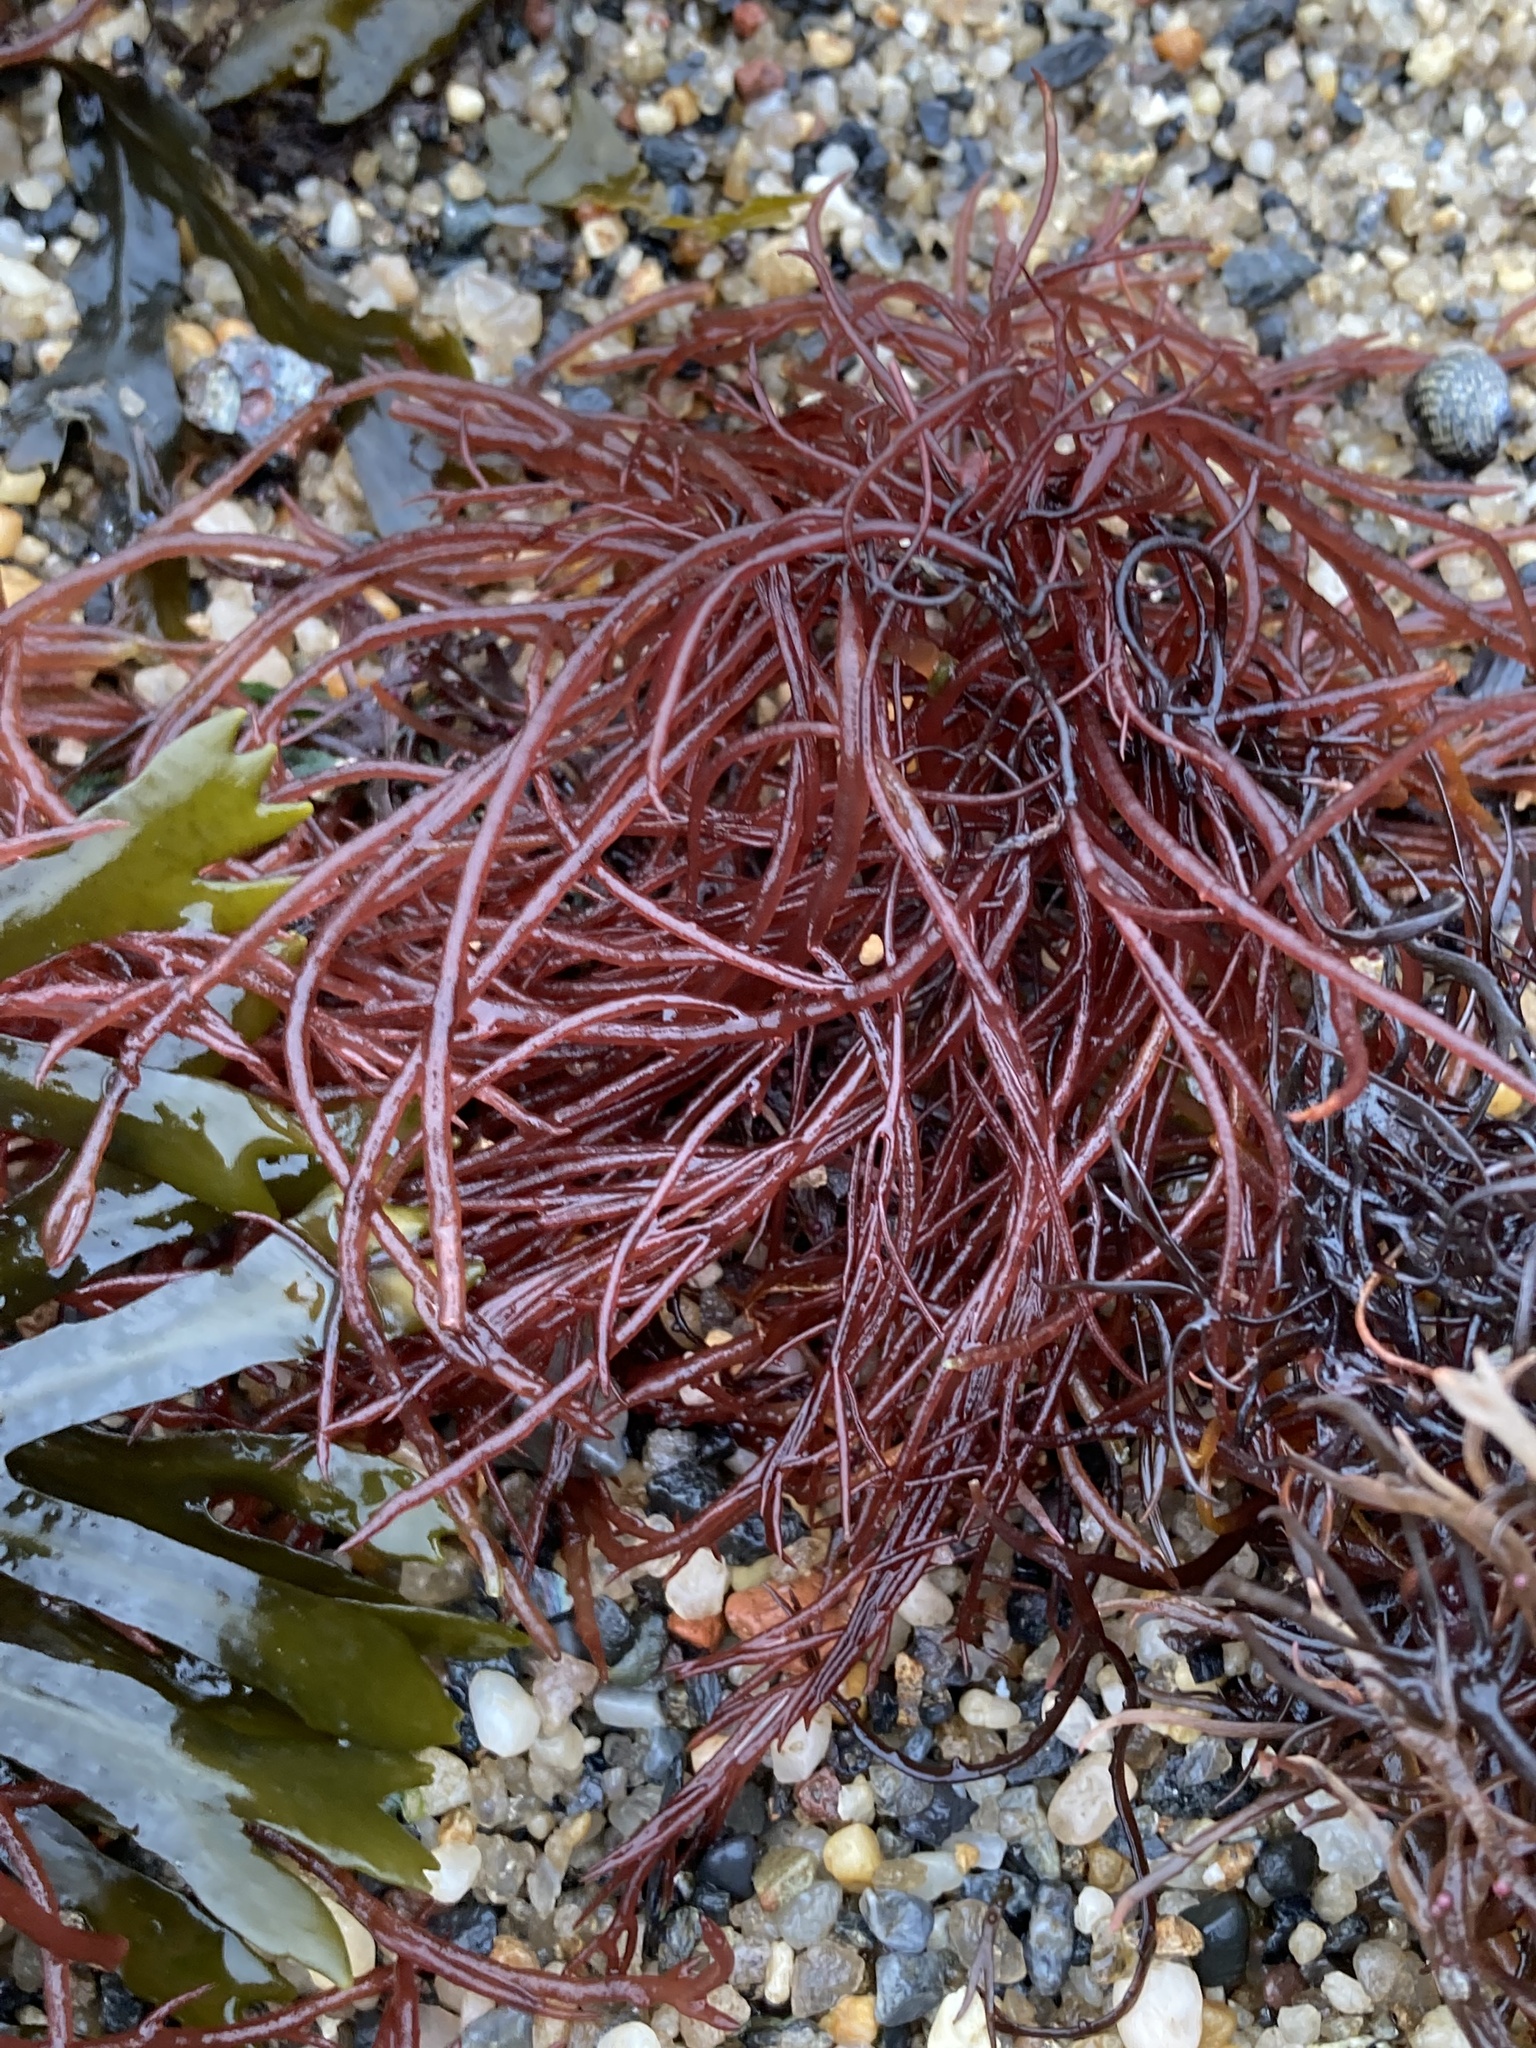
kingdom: Plantae
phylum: Rhodophyta
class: Florideophyceae
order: Gigartinales
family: Solieriaceae
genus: Sarcodiotheca
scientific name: Sarcodiotheca gaudichaudii
